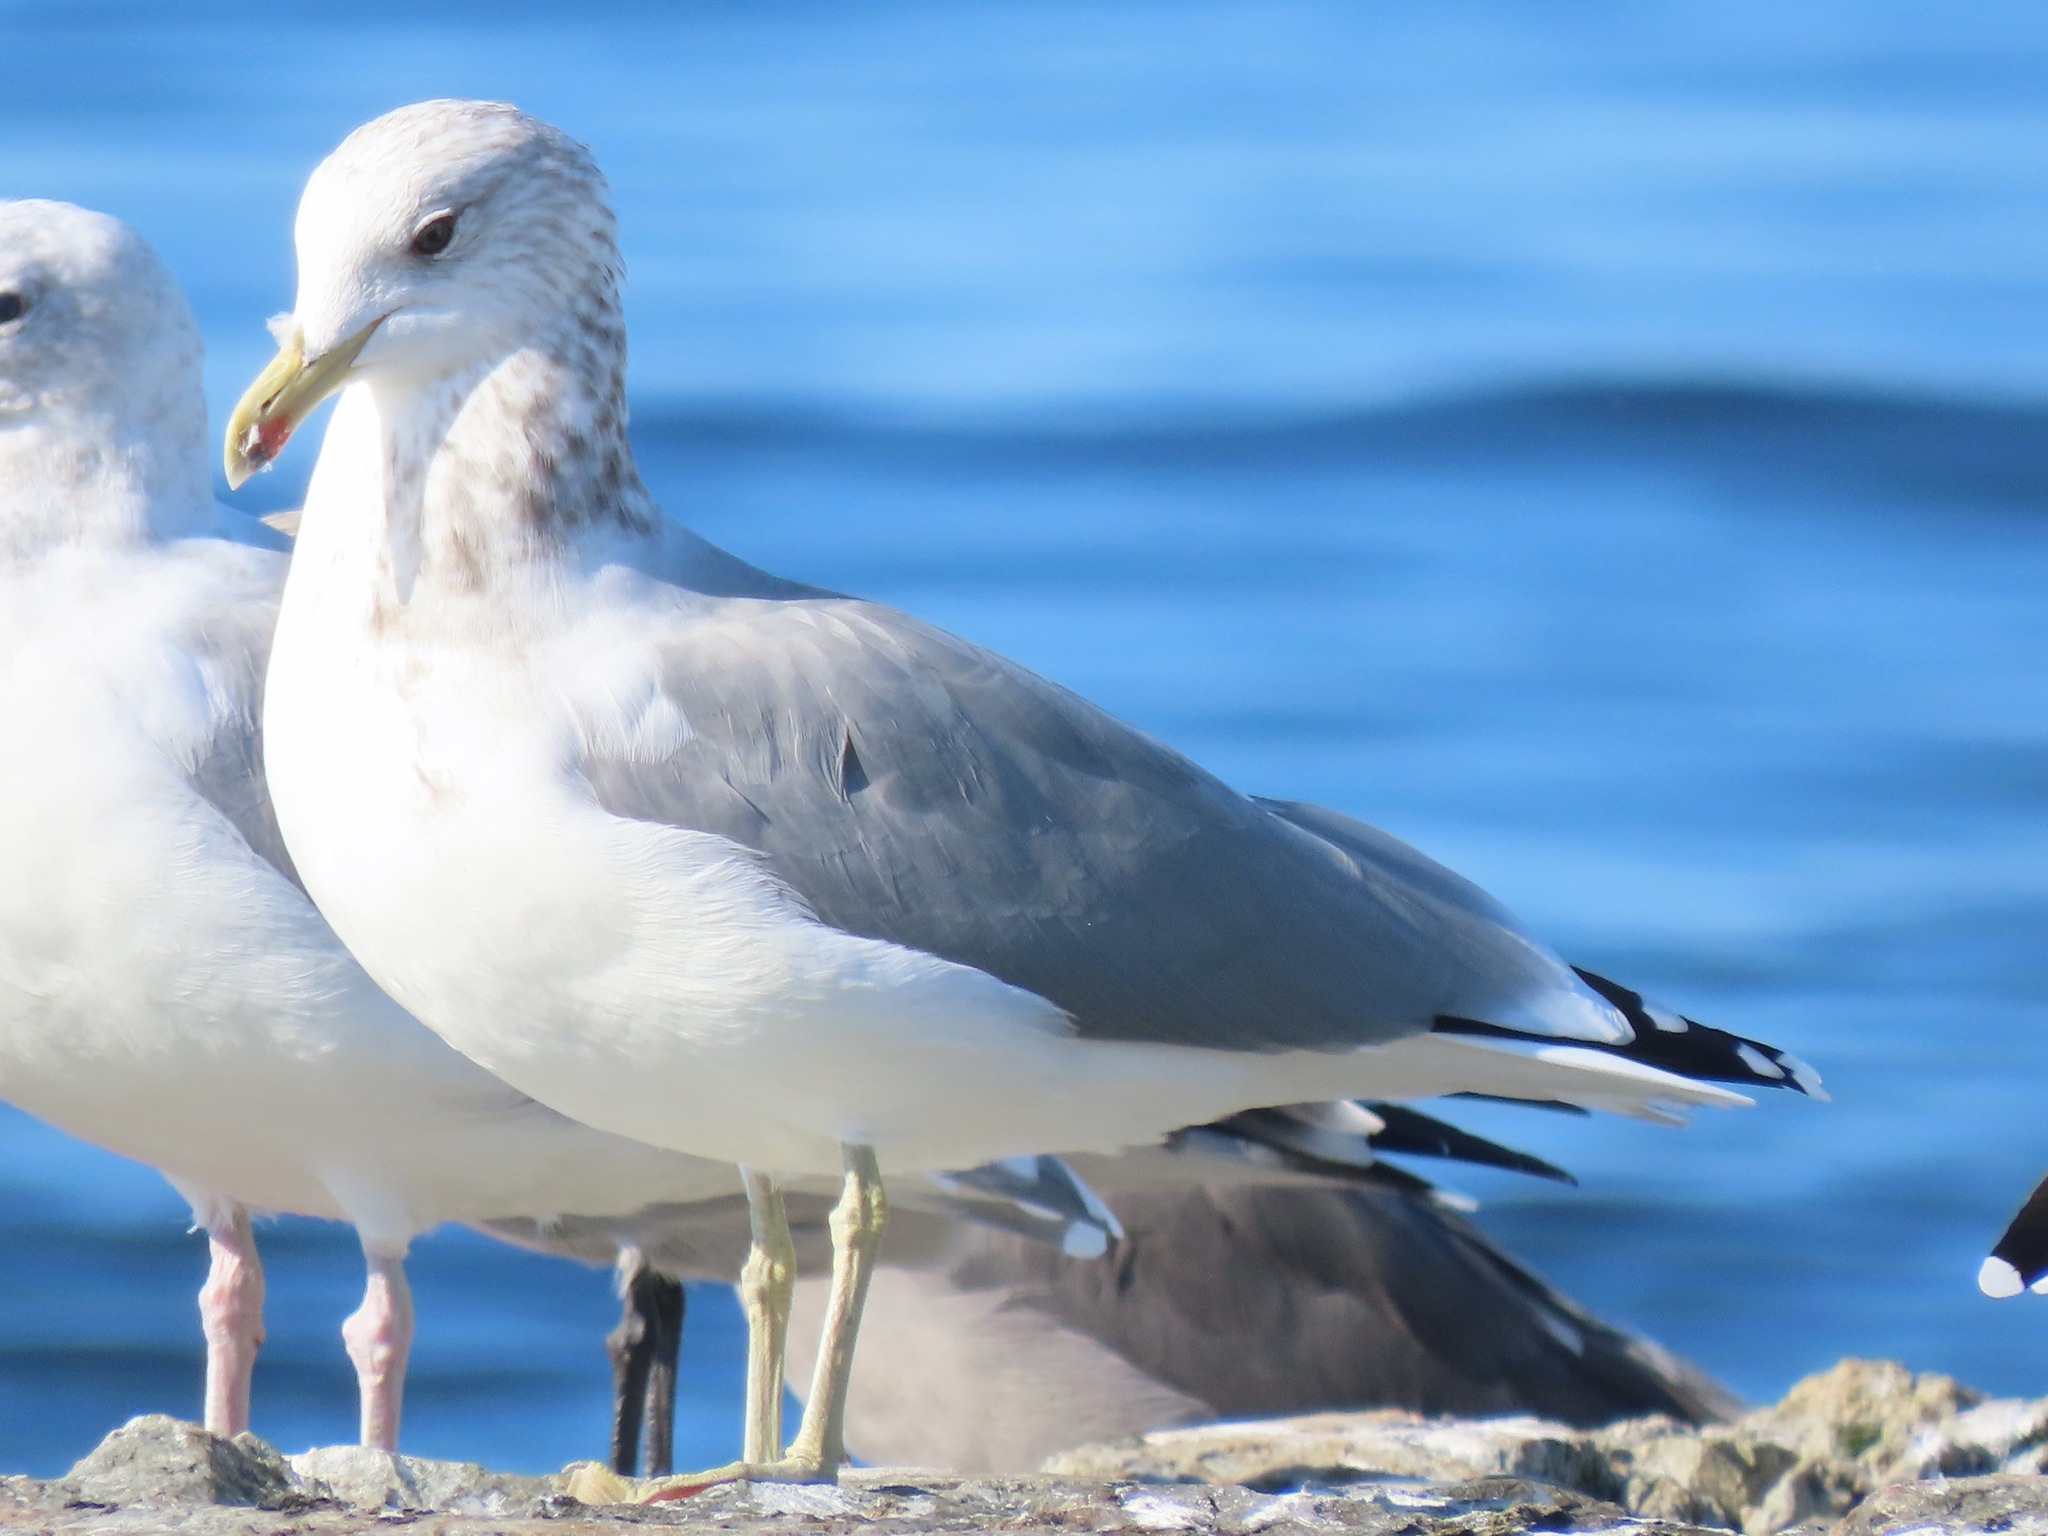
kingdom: Animalia
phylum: Chordata
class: Aves
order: Charadriiformes
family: Laridae
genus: Larus
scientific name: Larus californicus
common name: California gull
